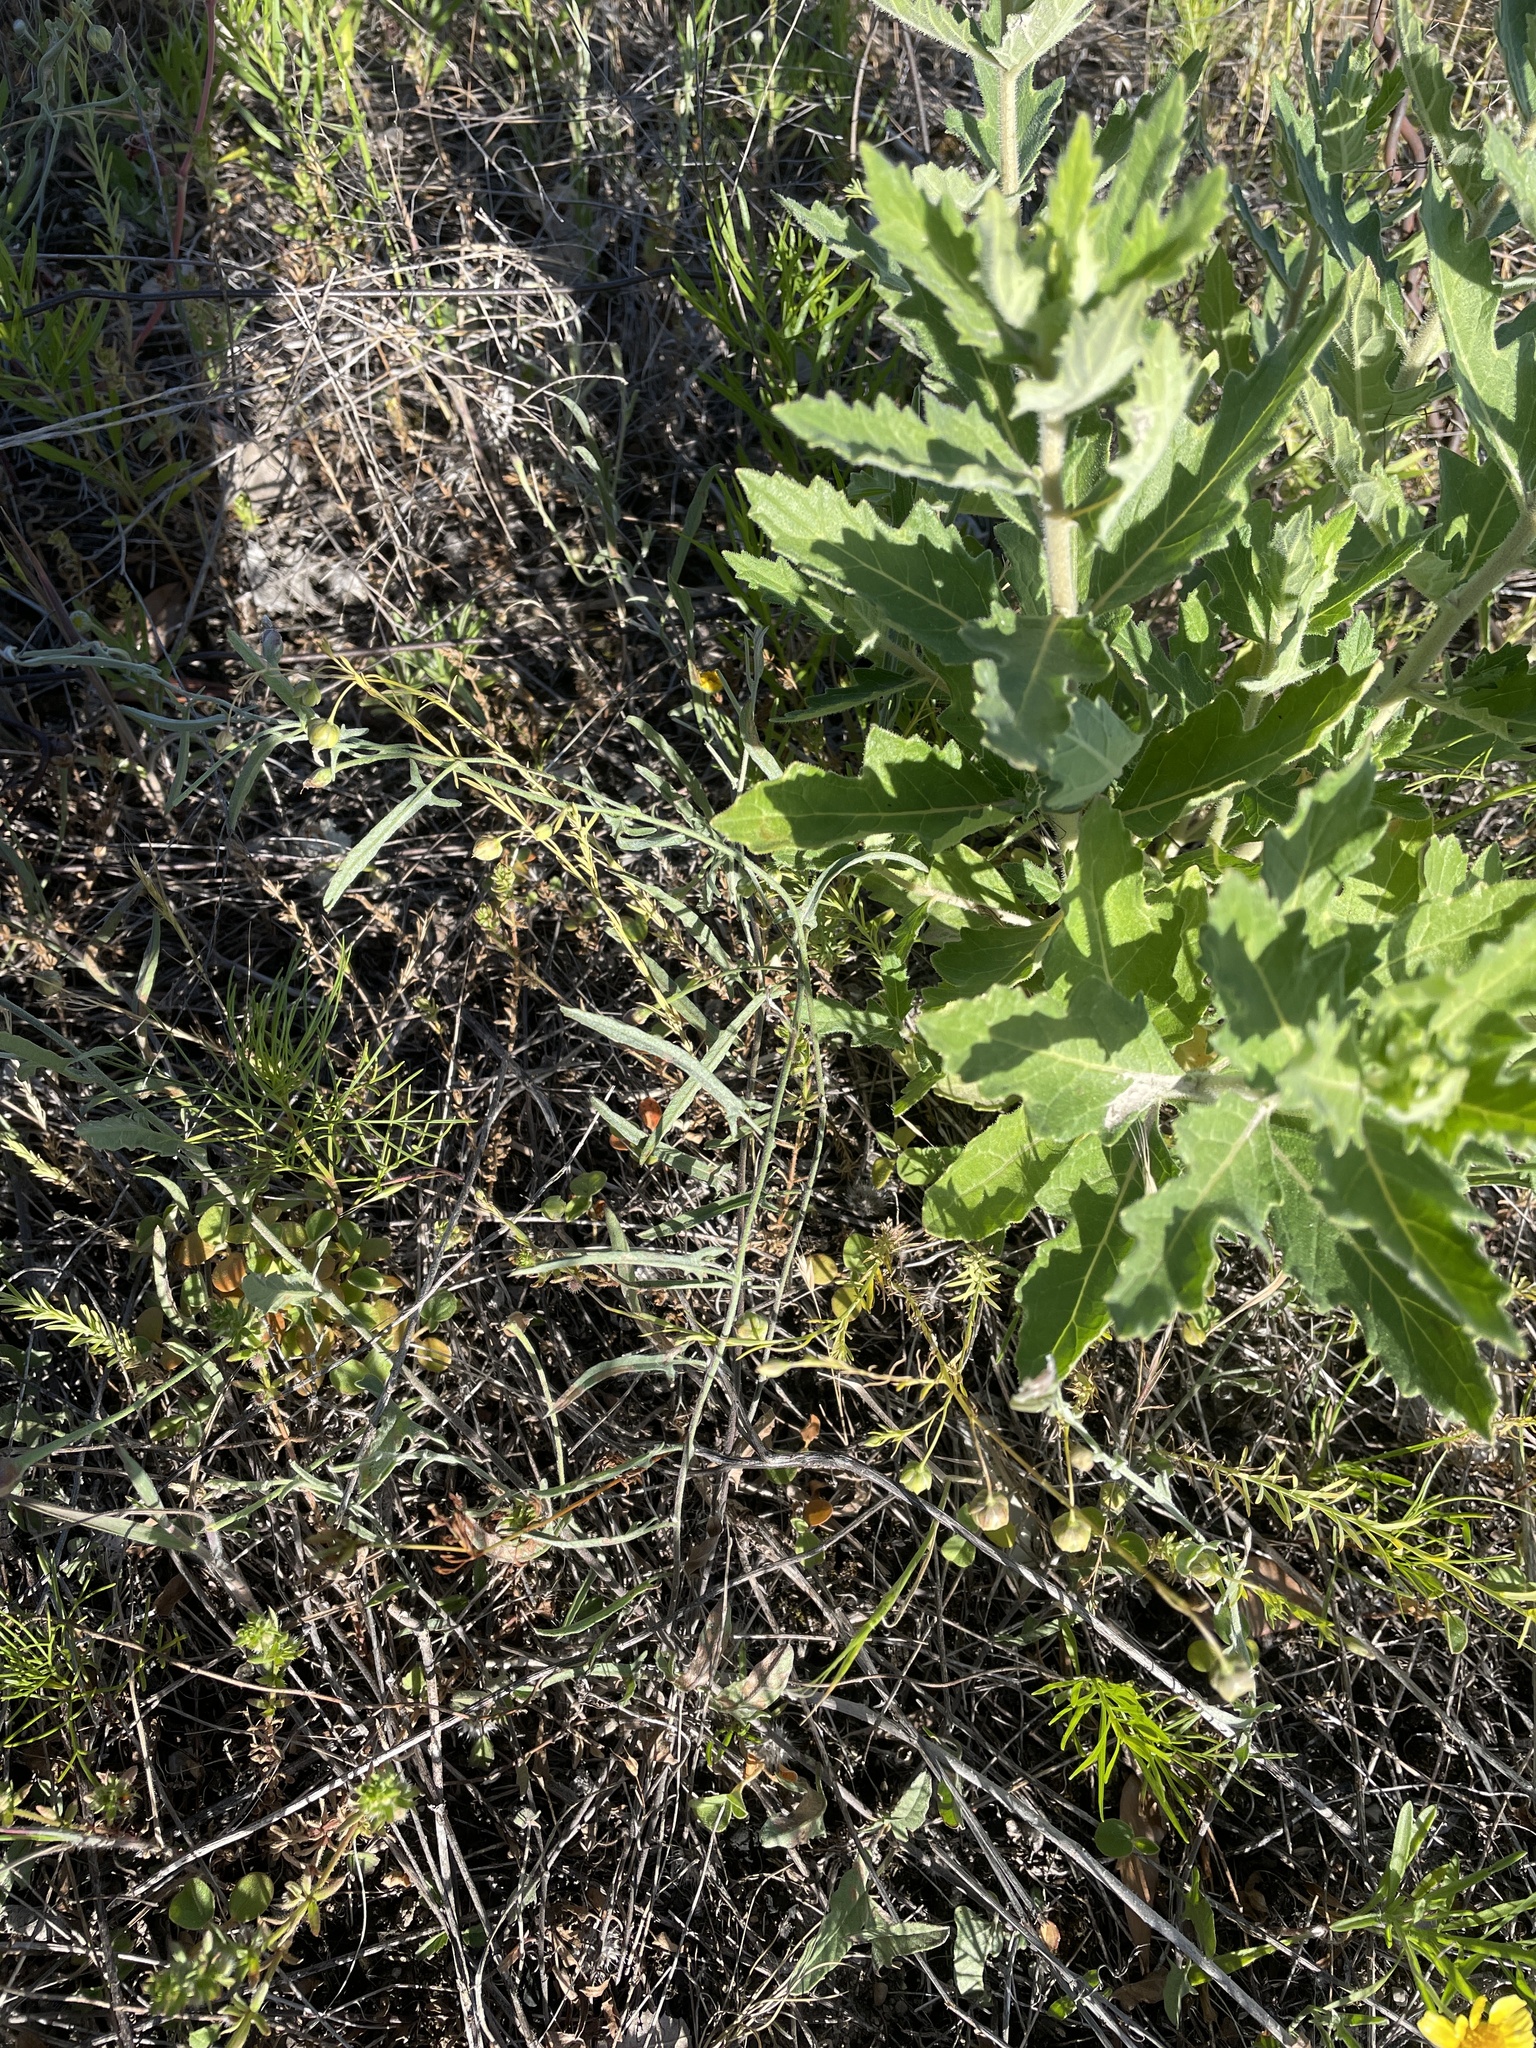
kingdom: Plantae
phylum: Tracheophyta
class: Magnoliopsida
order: Solanales
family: Convolvulaceae
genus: Convolvulus
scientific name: Convolvulus equitans
